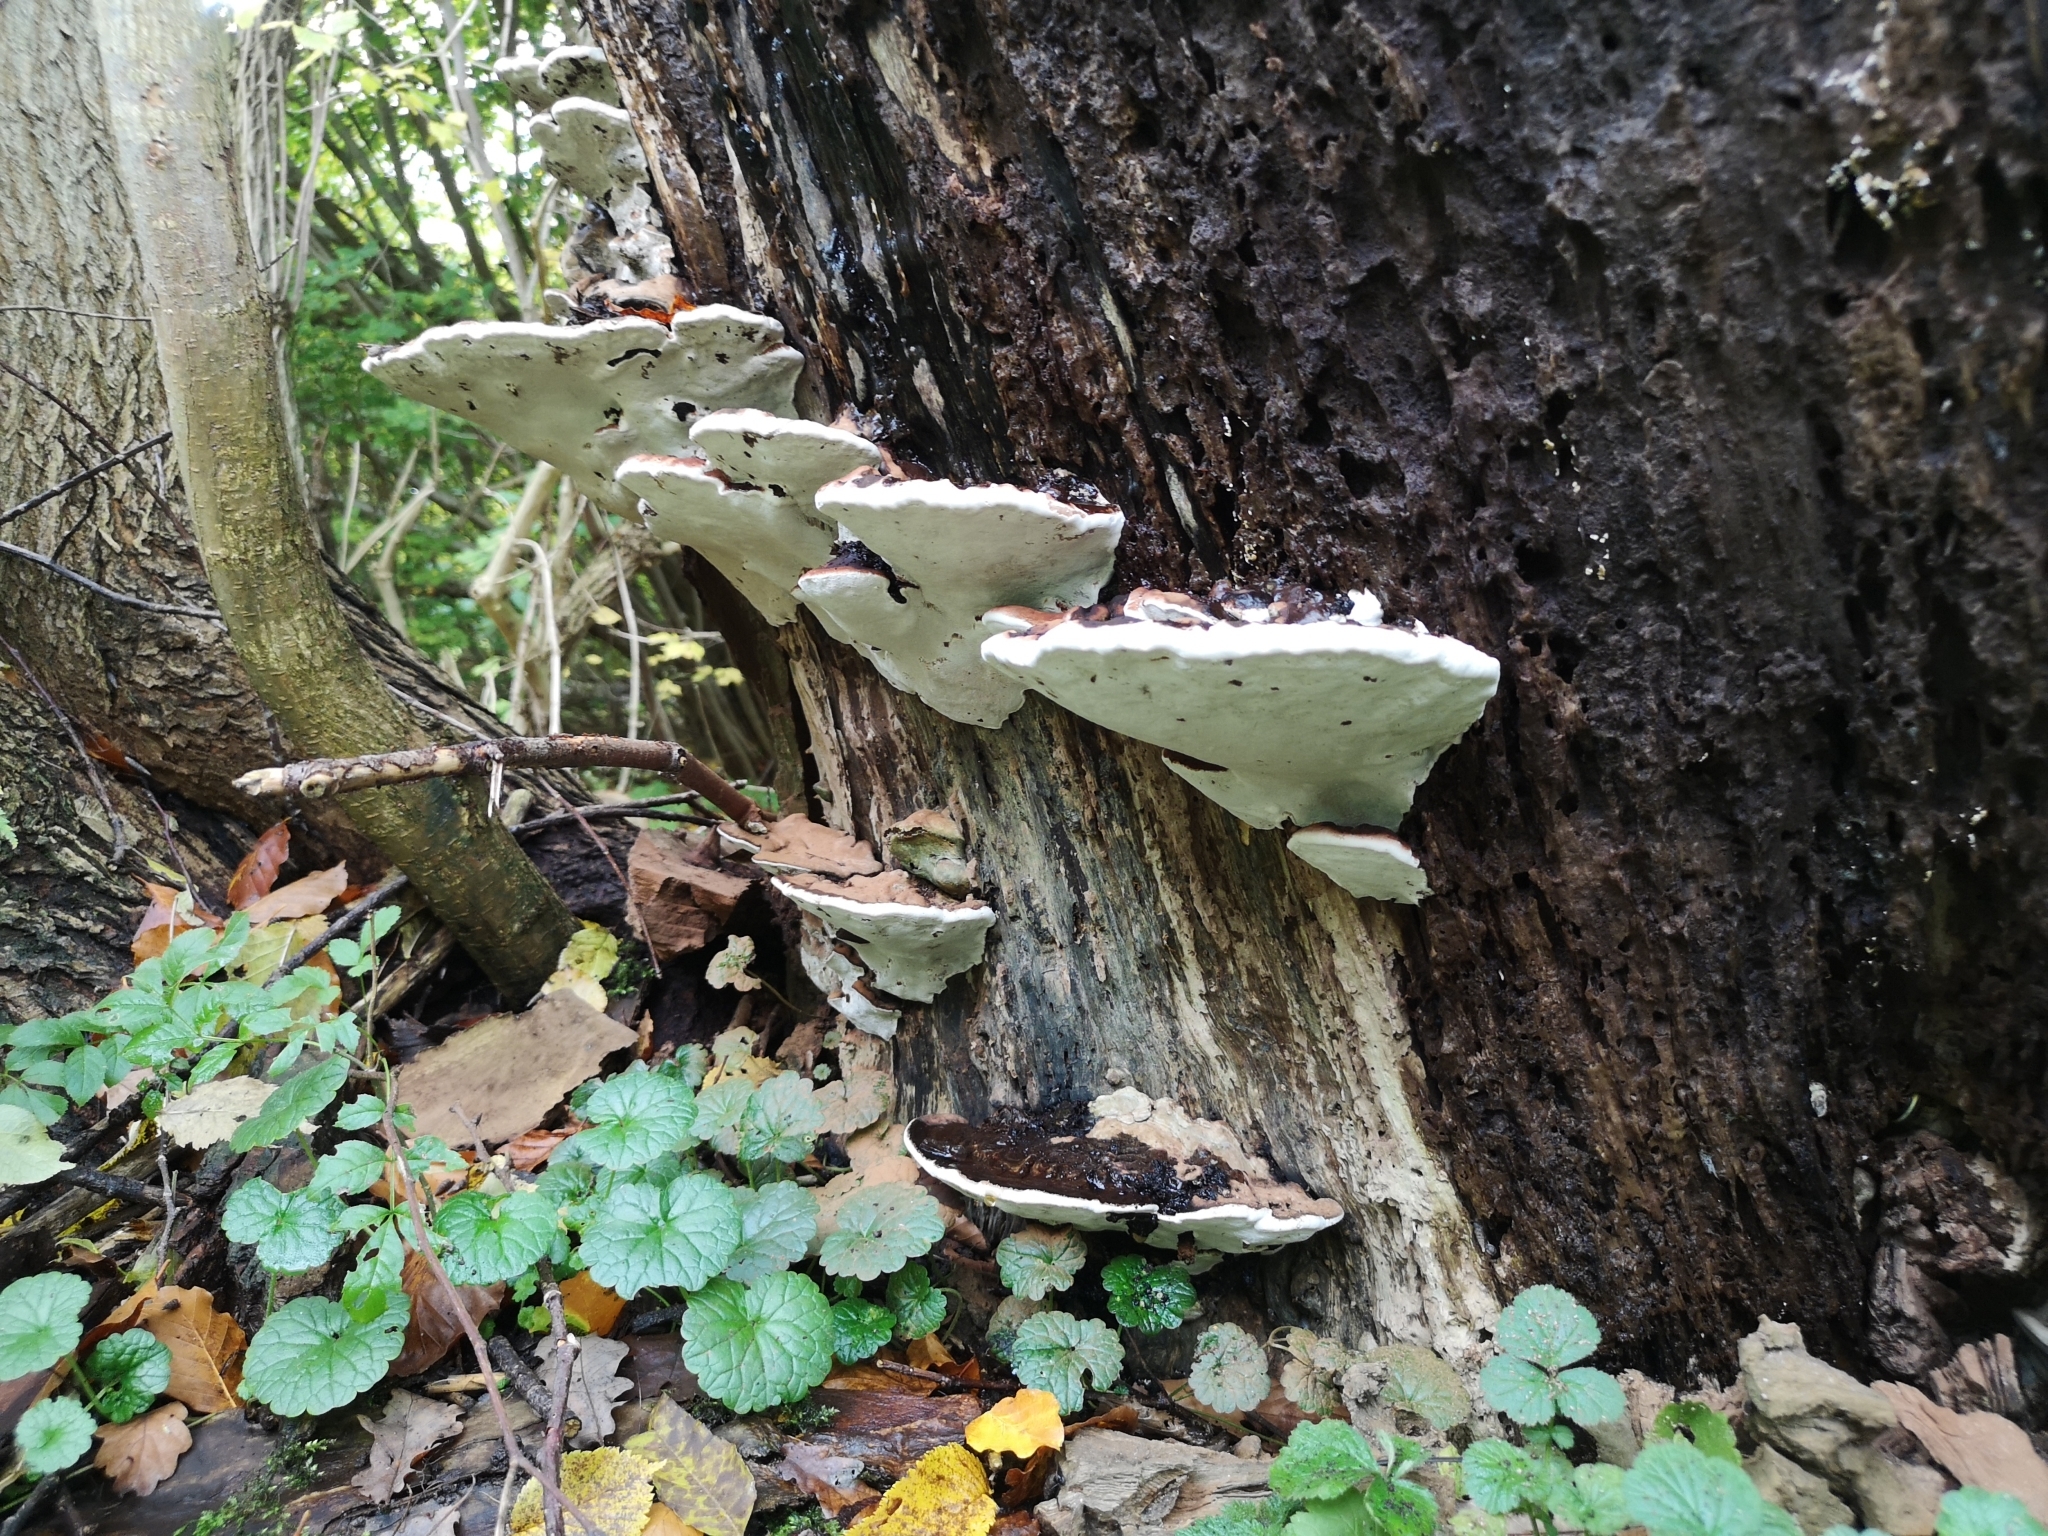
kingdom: Fungi
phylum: Basidiomycota
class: Agaricomycetes
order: Polyporales
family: Polyporaceae
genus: Ganoderma
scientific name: Ganoderma applanatum
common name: Artist's bracket
